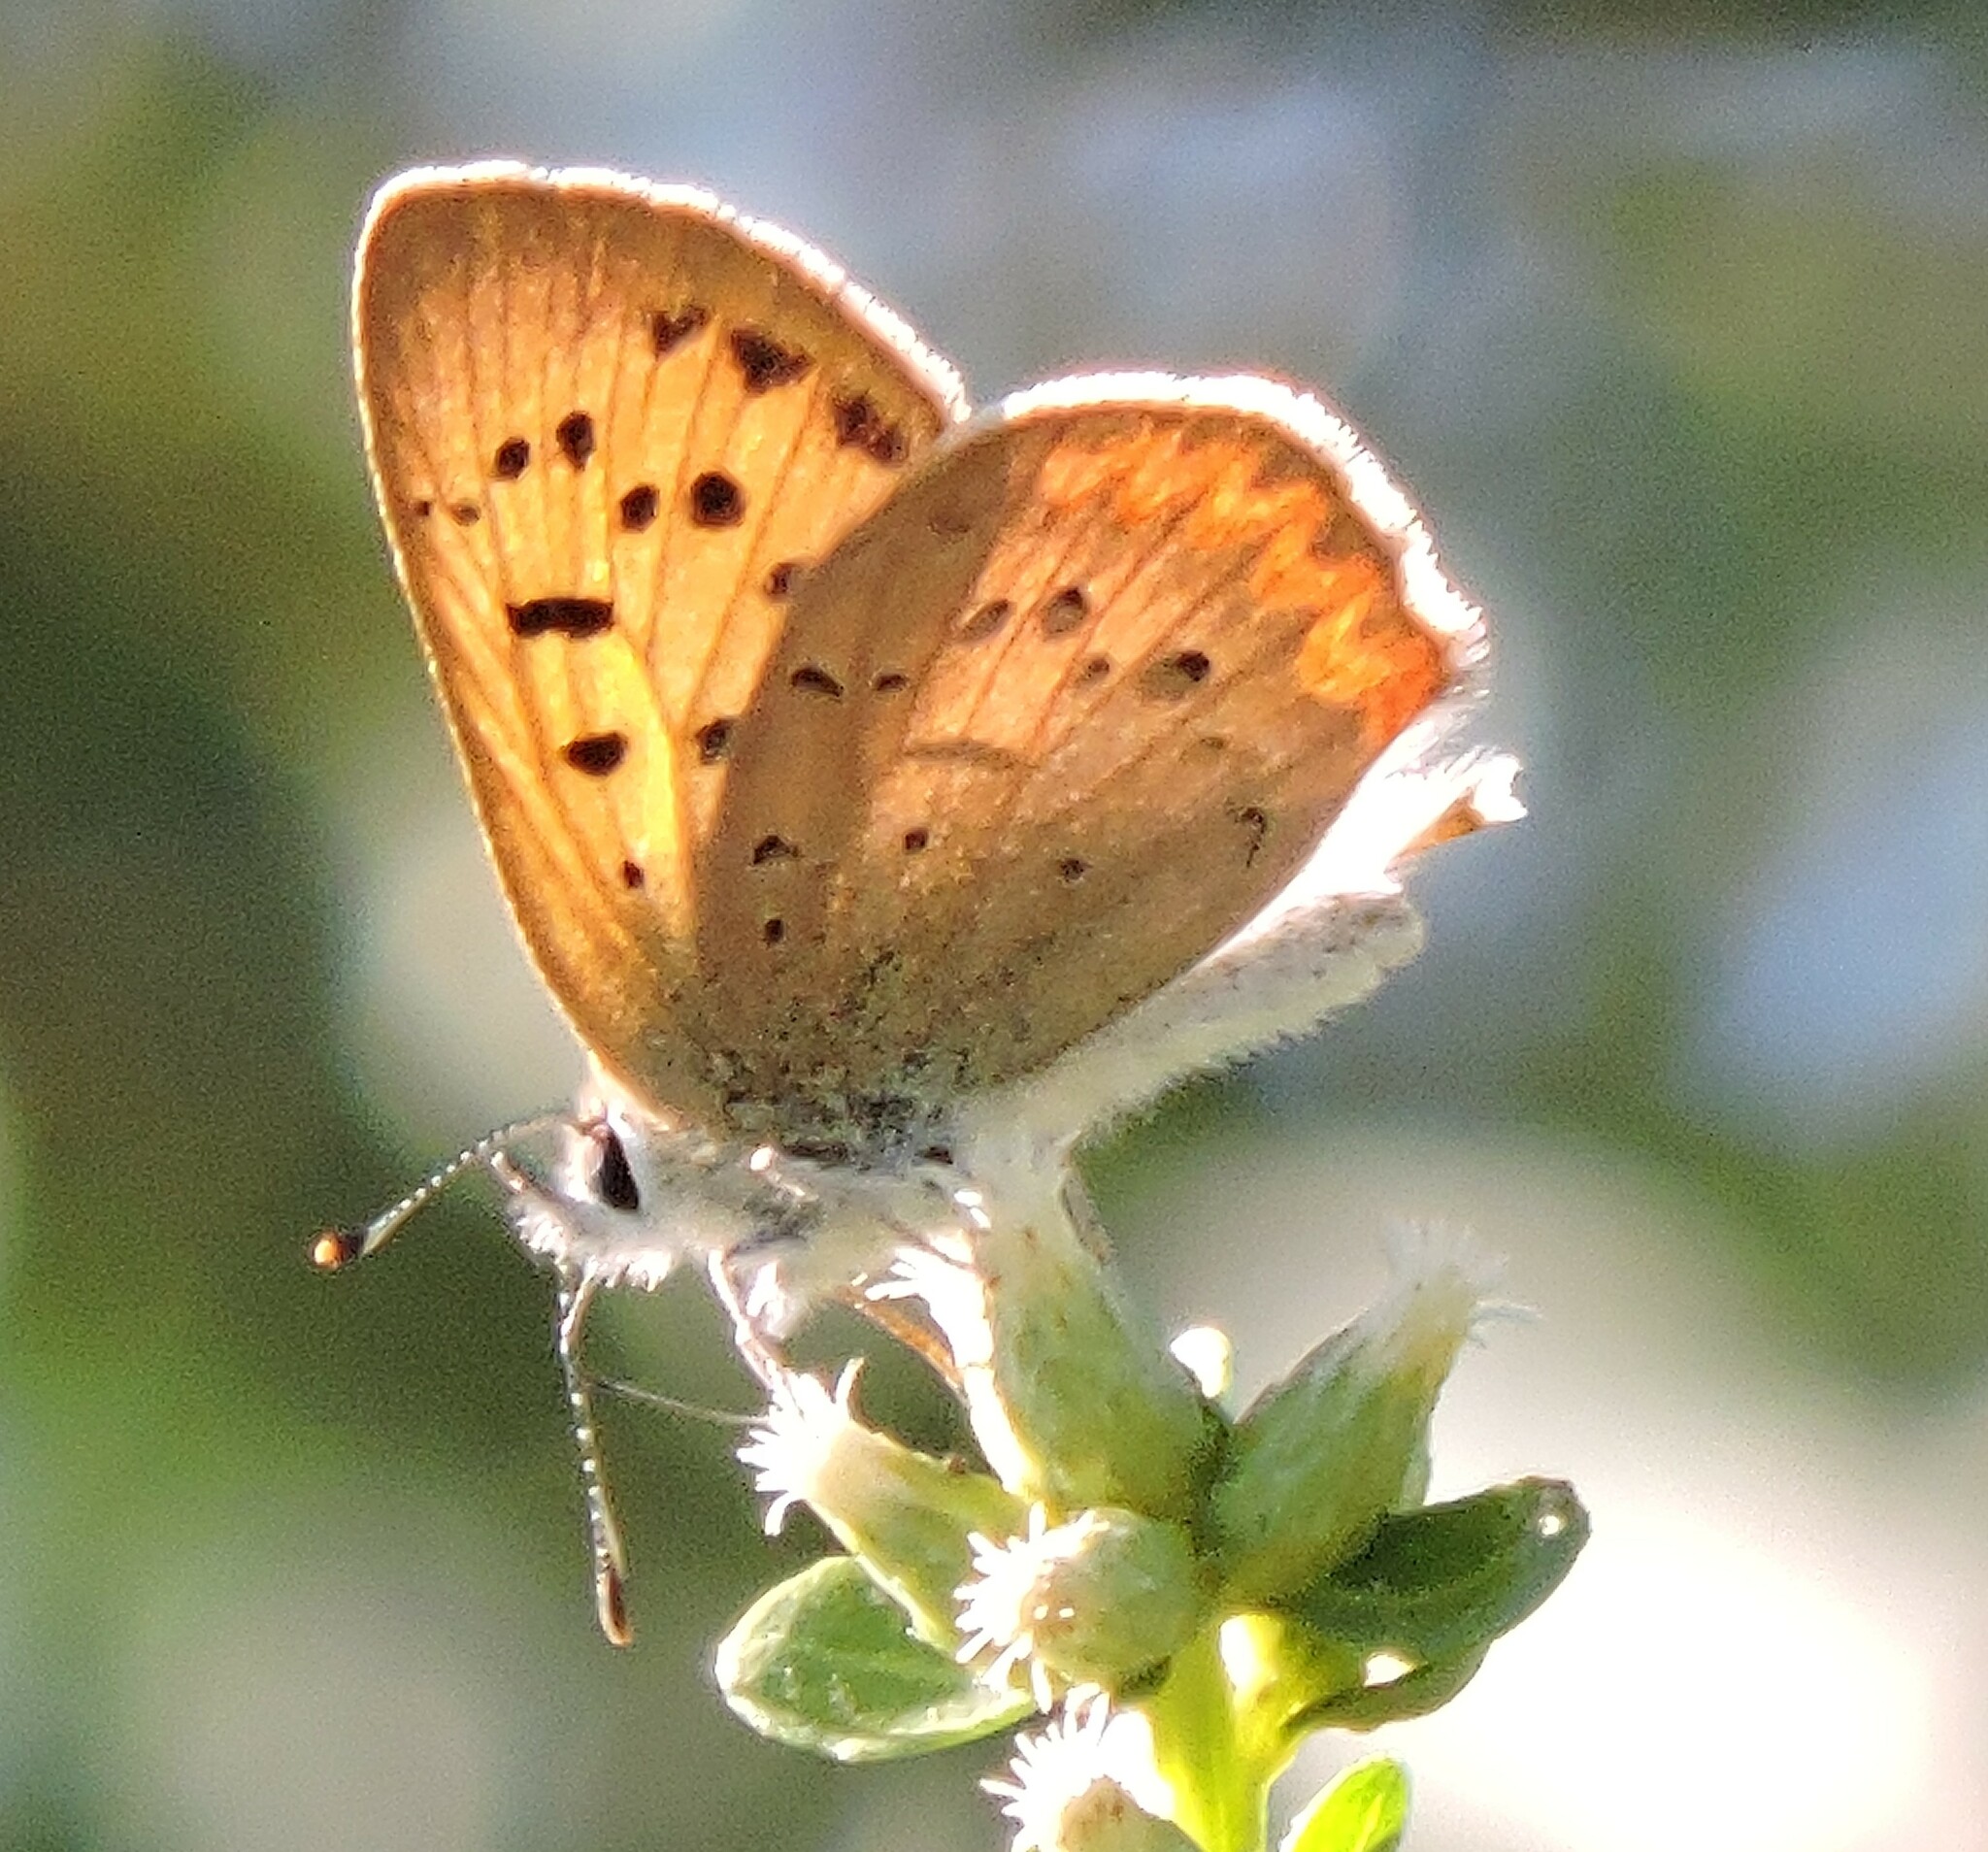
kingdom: Animalia
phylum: Arthropoda
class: Insecta
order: Lepidoptera
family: Lycaenidae
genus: Tharsalea
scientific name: Tharsalea helloides
